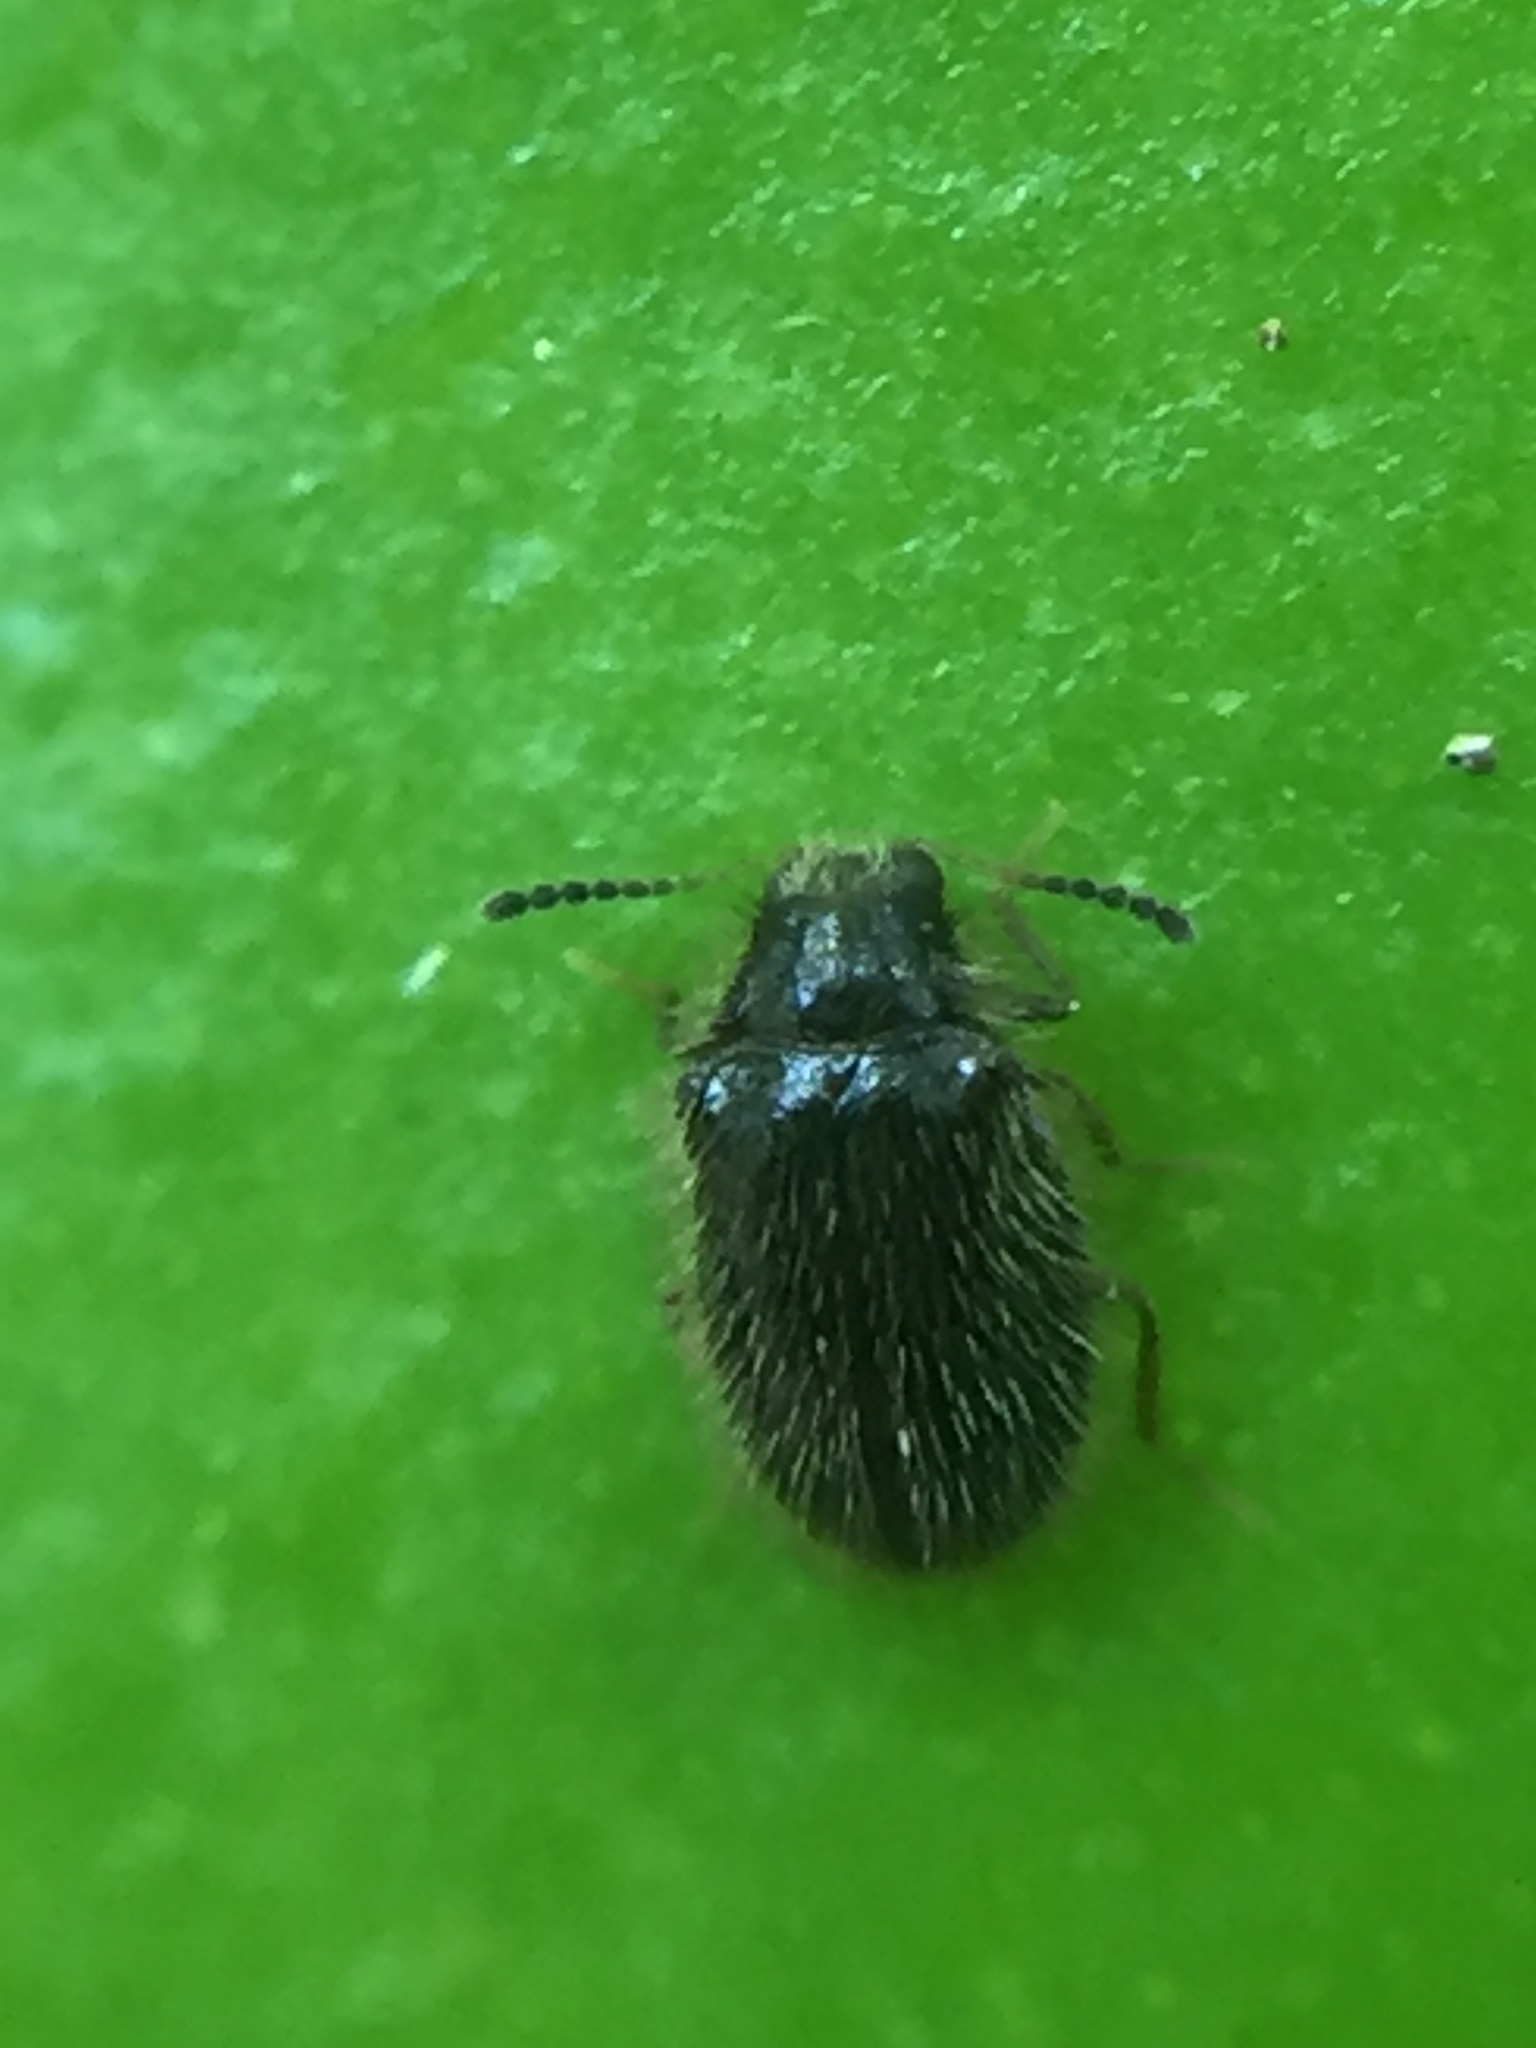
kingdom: Animalia
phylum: Arthropoda
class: Insecta
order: Coleoptera
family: Dermestidae
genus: Hexanodes
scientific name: Hexanodes
